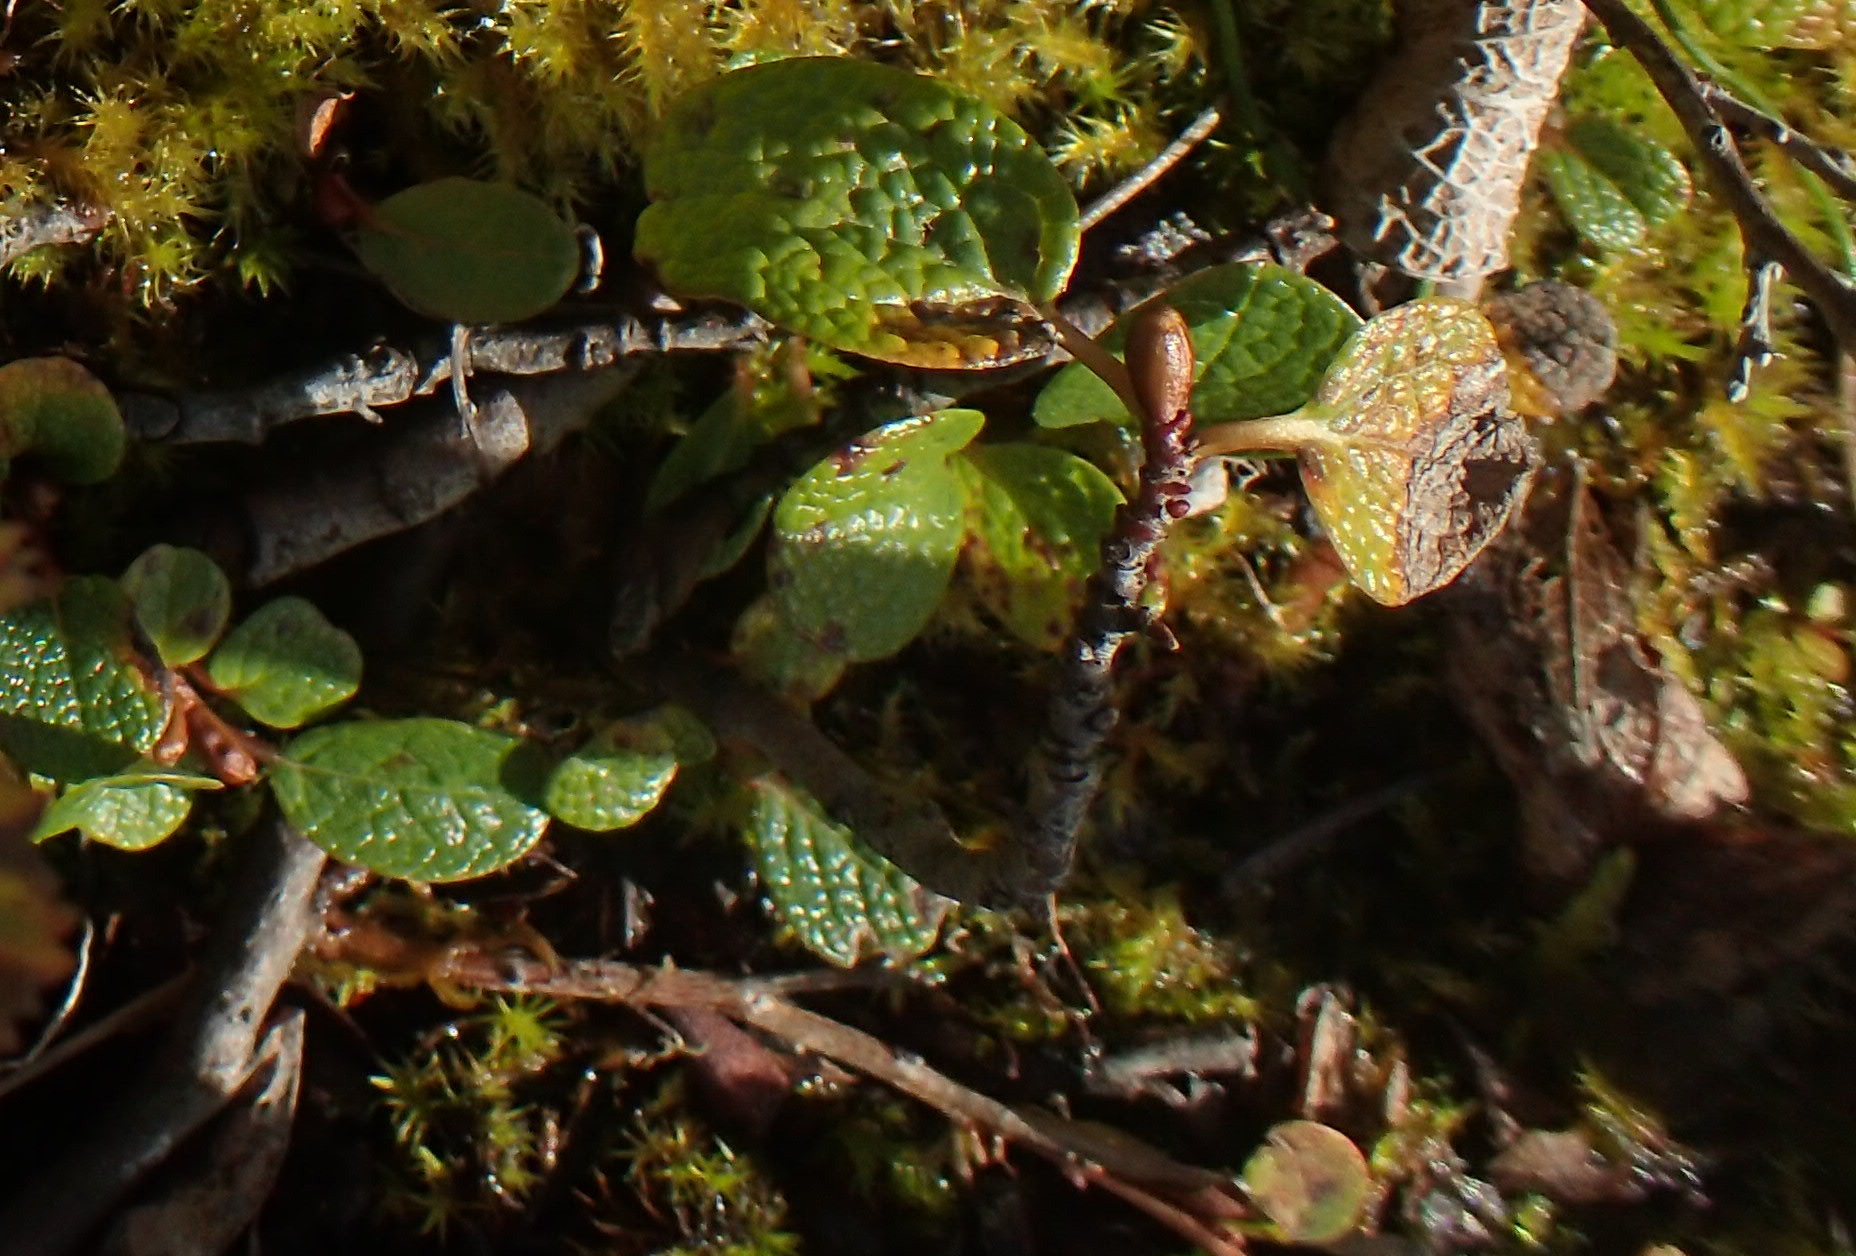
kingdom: Plantae
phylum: Tracheophyta
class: Magnoliopsida
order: Malpighiales
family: Salicaceae
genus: Salix
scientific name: Salix reticulata
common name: Net-leaved willow
